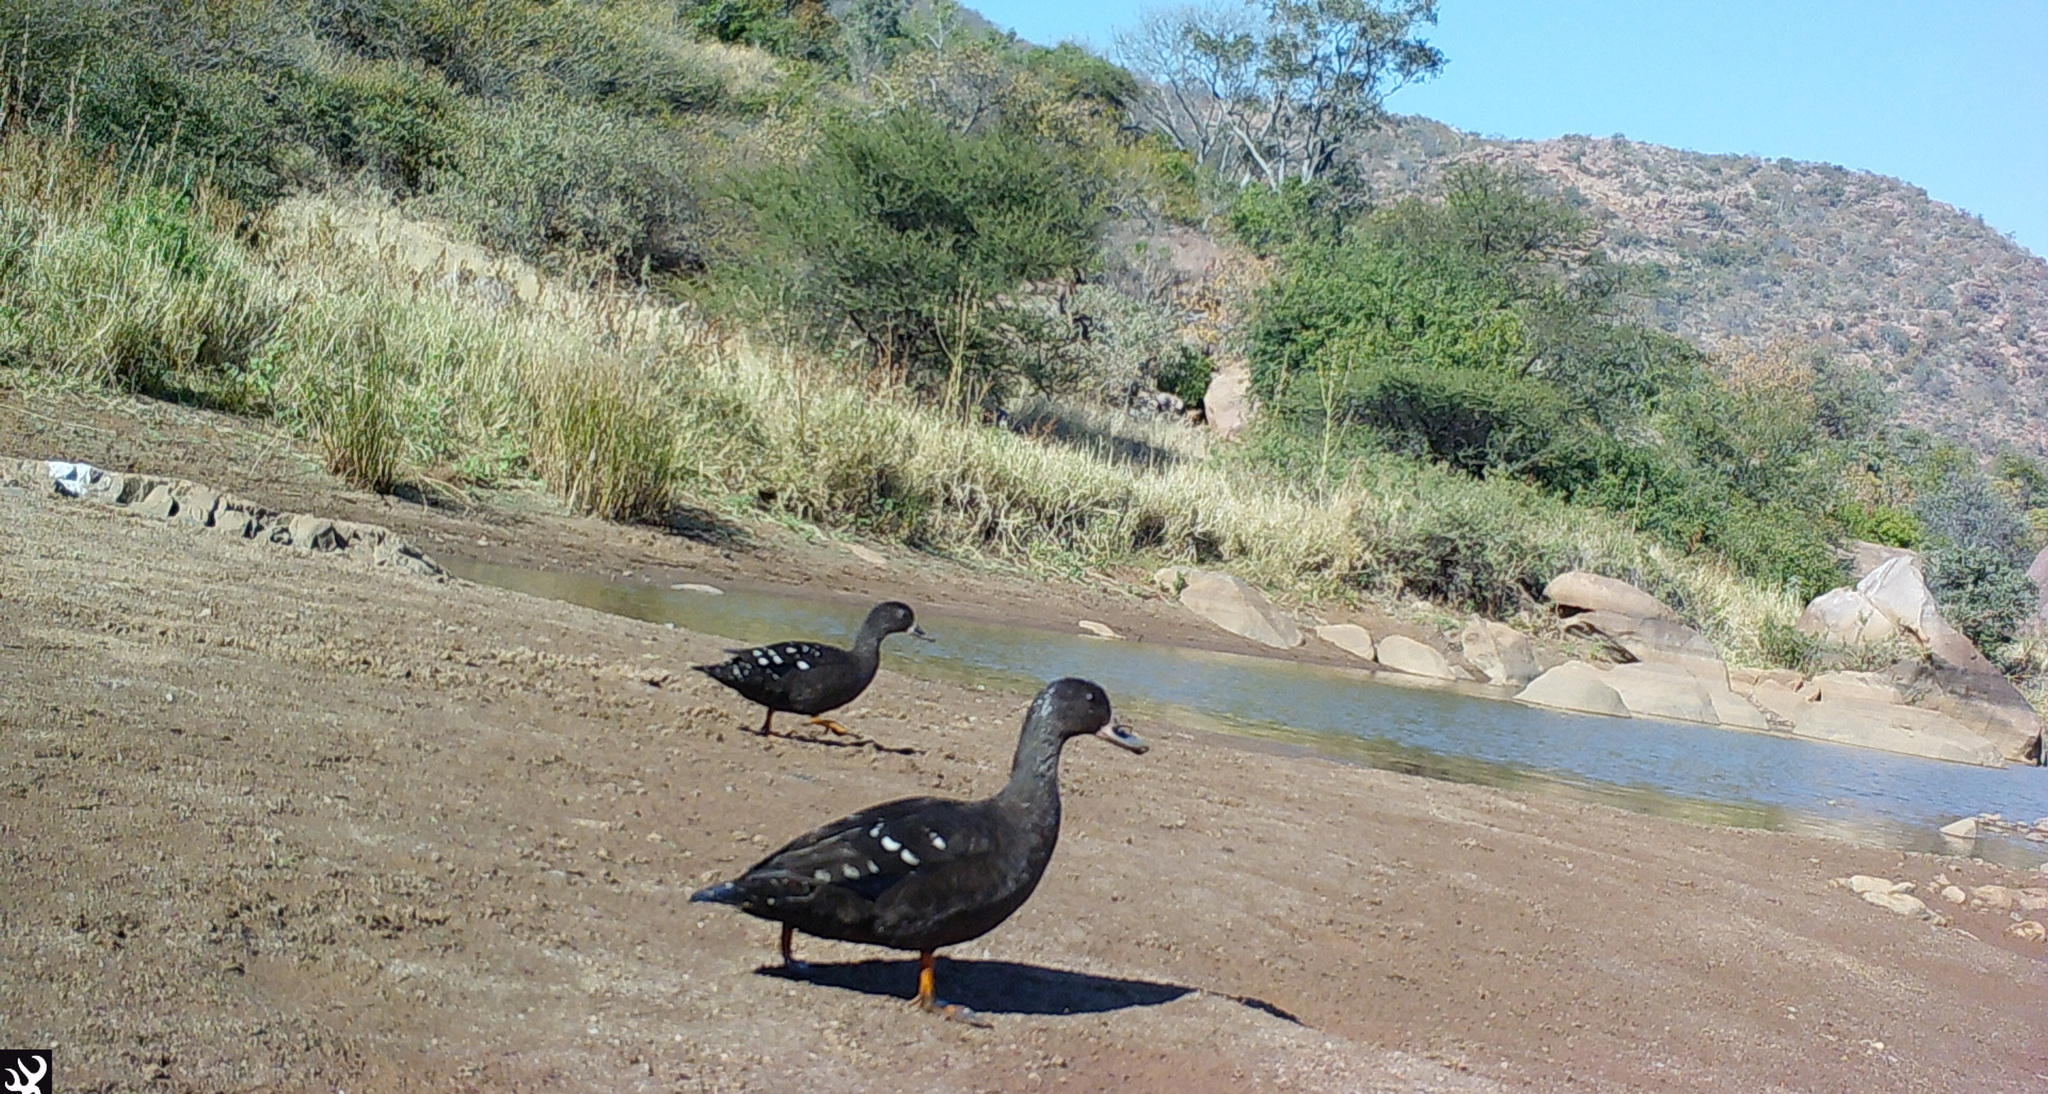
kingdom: Animalia
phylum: Chordata
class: Aves
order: Anseriformes
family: Anatidae
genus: Anas
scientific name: Anas sparsa
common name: African black duck
